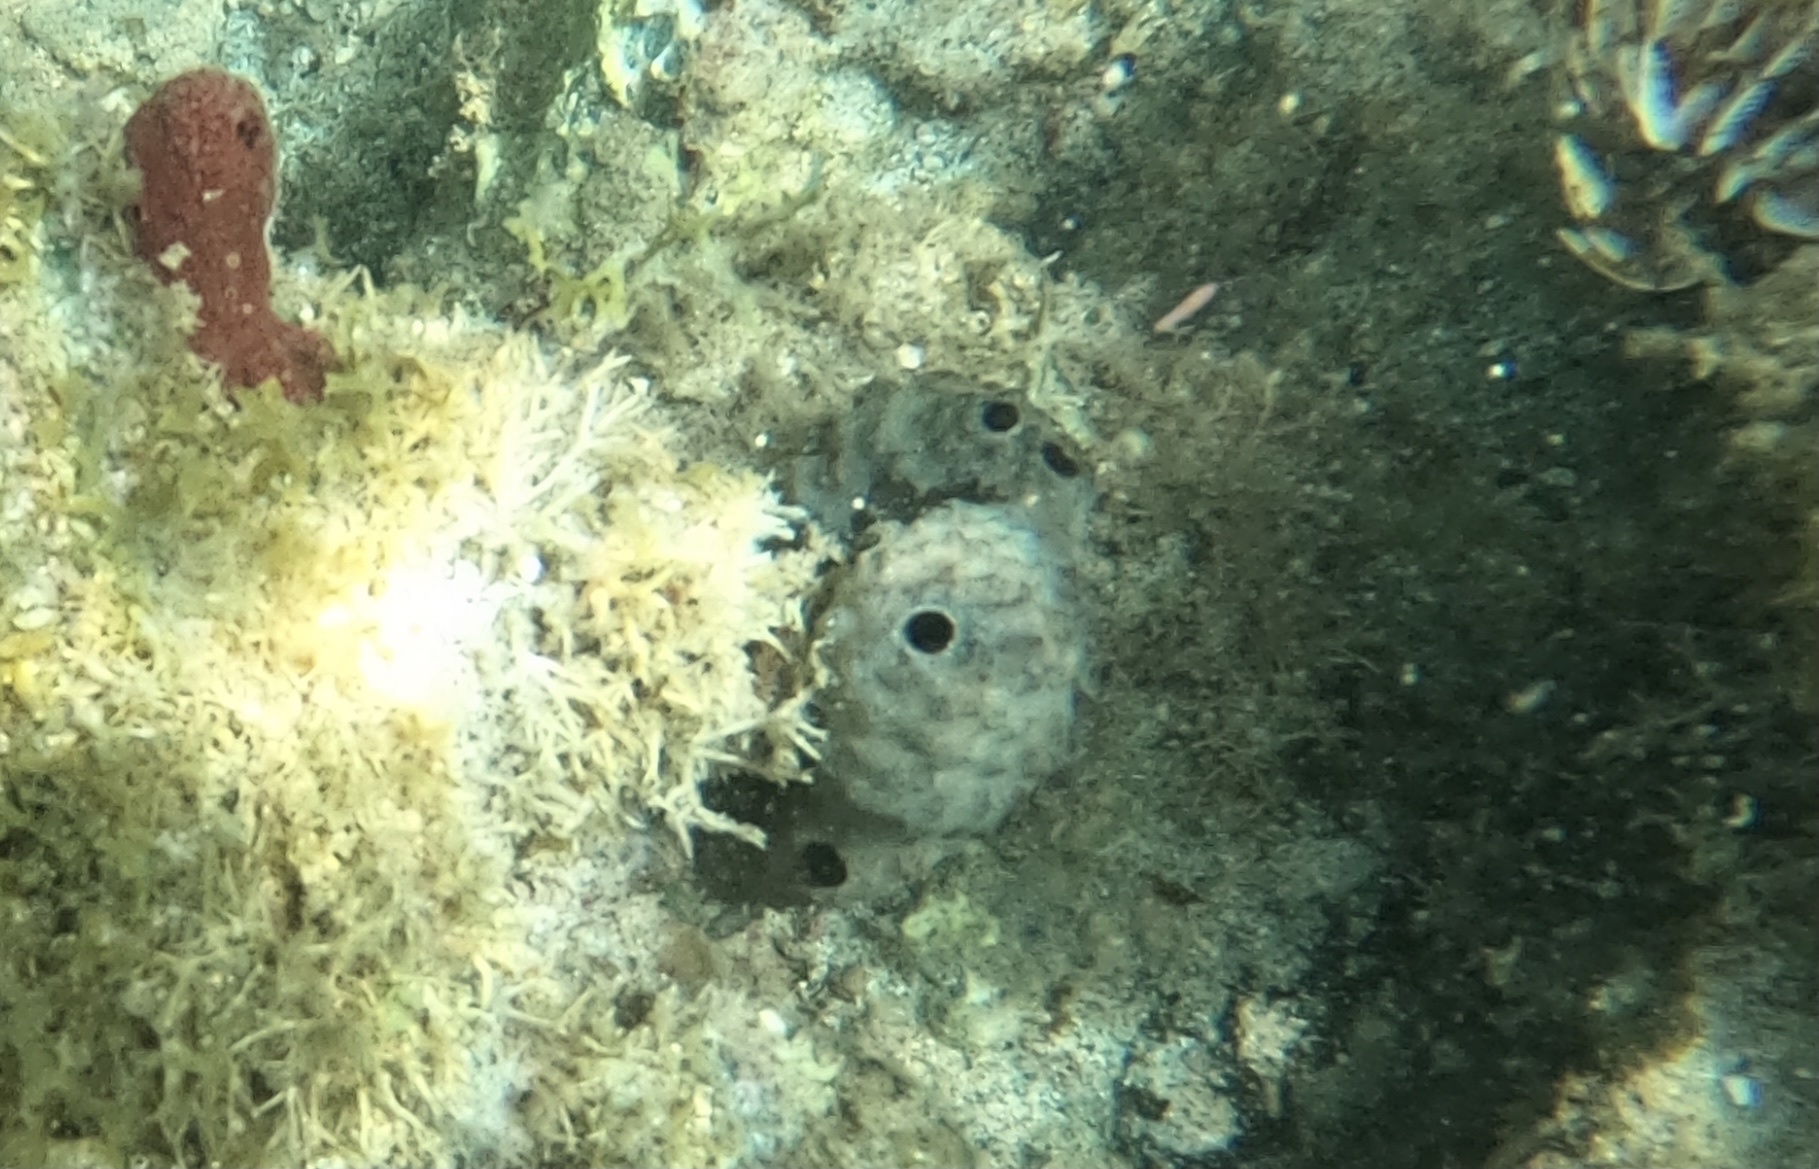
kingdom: Animalia
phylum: Porifera
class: Demospongiae
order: Dictyoceratida
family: Irciniidae
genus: Ircinia
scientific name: Ircinia strobilina
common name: Cake sponge
